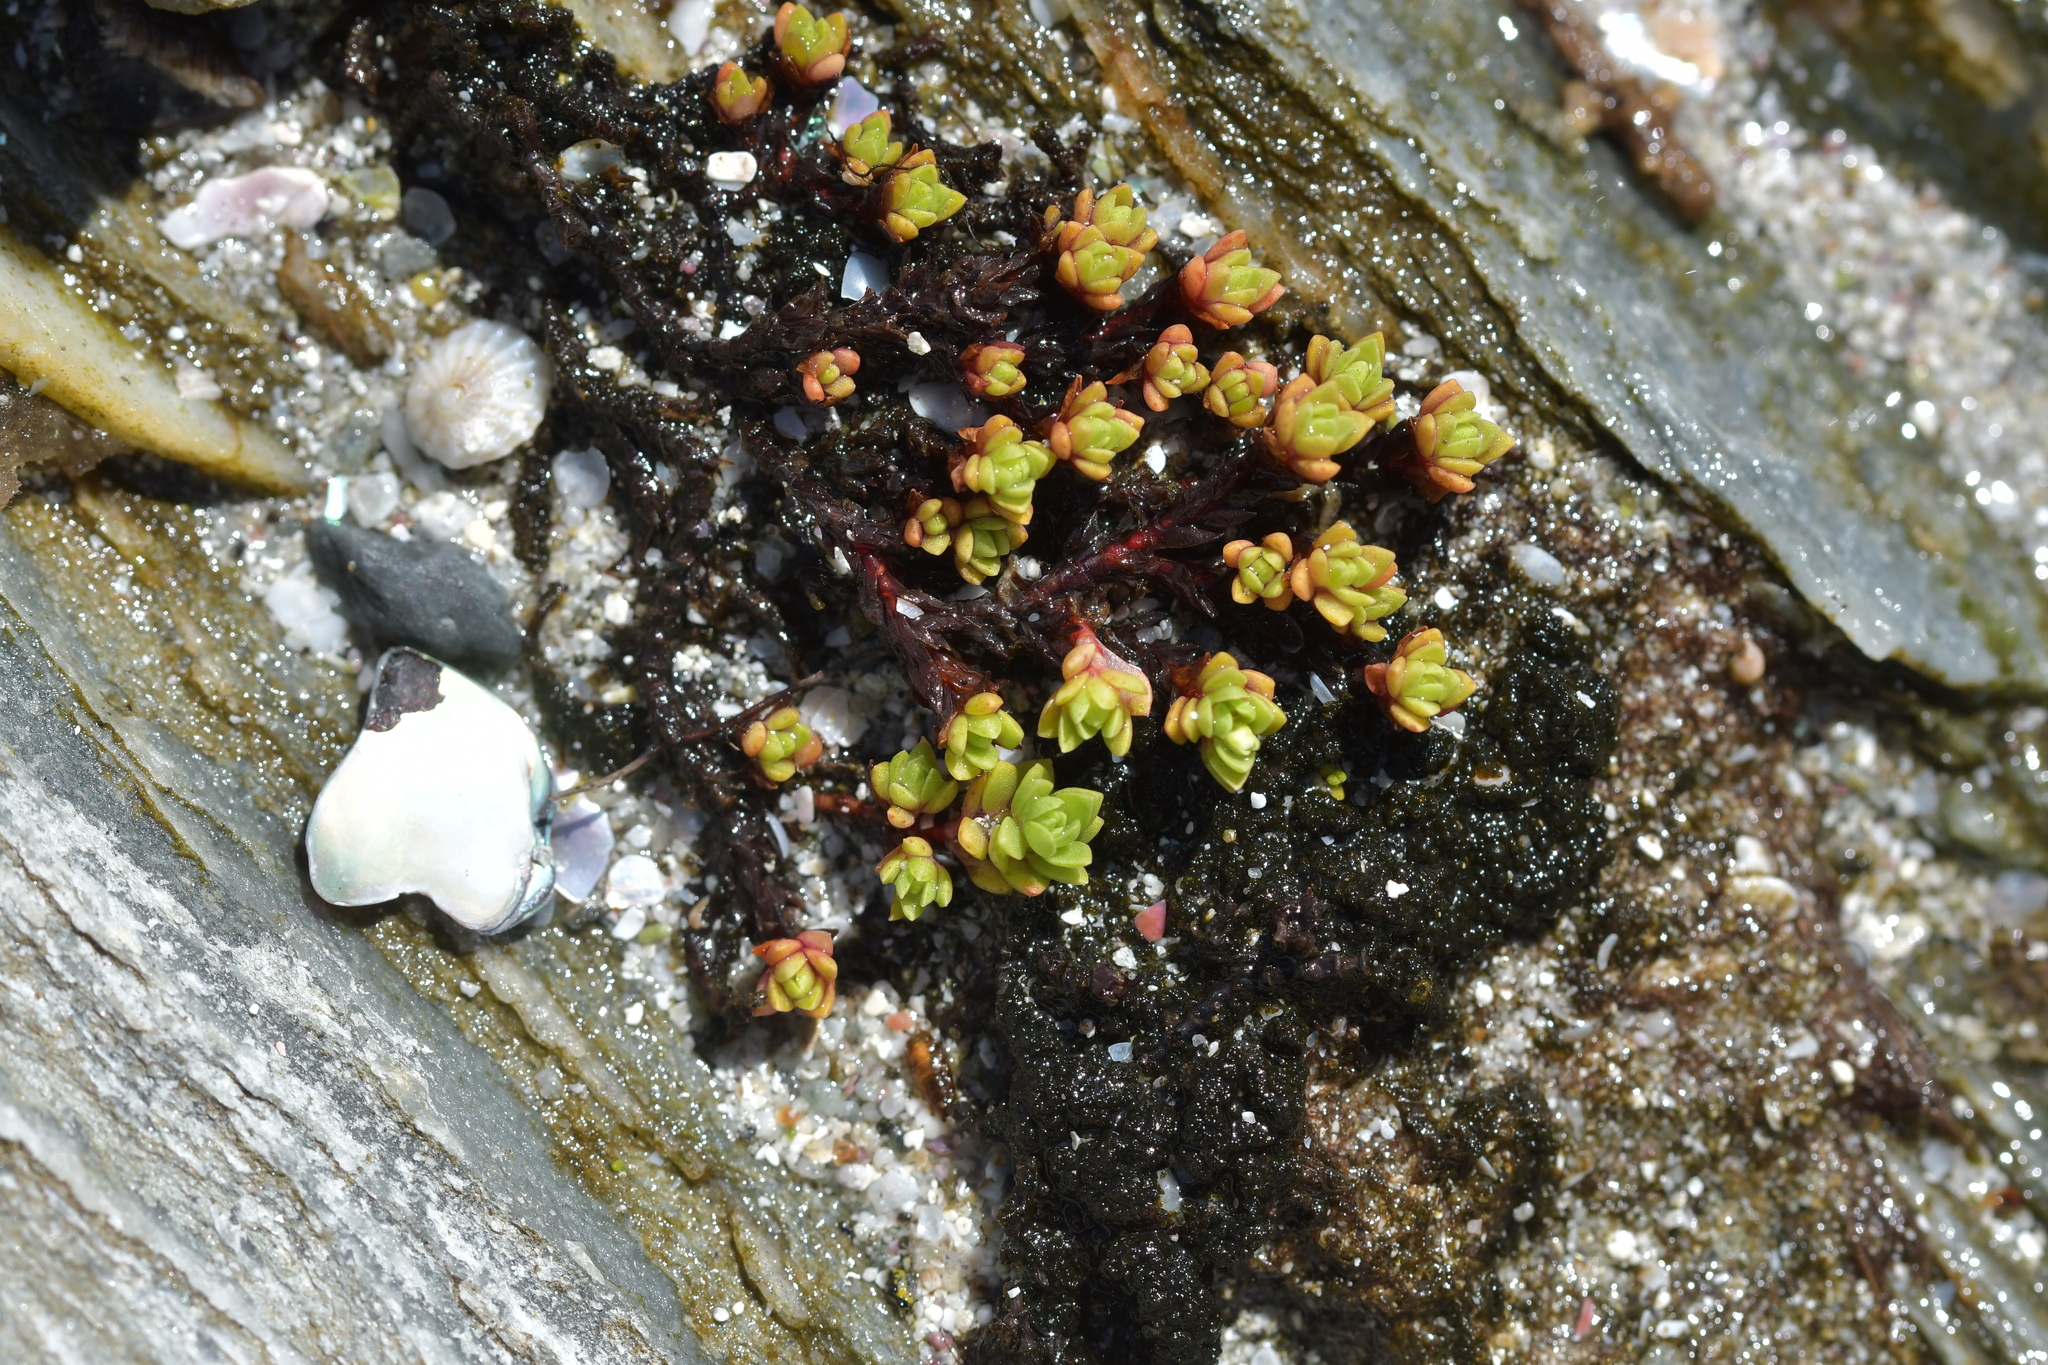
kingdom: Plantae
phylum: Tracheophyta
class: Magnoliopsida
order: Saxifragales
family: Crassulaceae
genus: Crassula
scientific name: Crassula moschata
